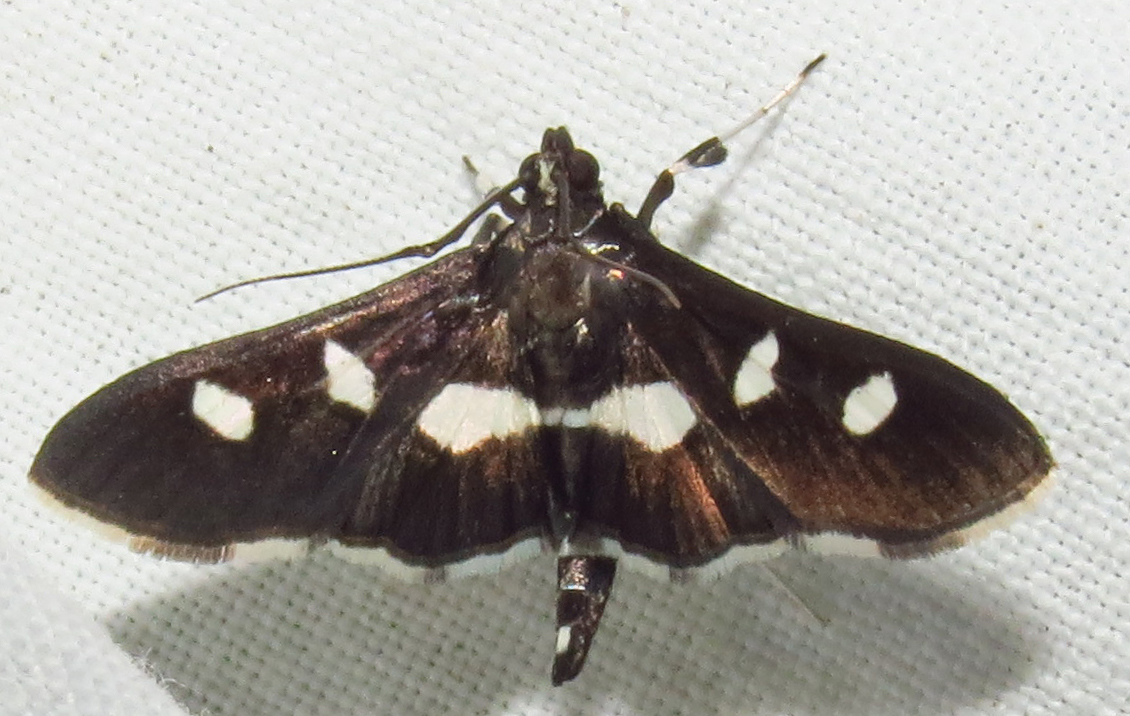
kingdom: Animalia
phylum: Arthropoda
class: Insecta
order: Lepidoptera
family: Crambidae
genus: Desmia
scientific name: Desmia
